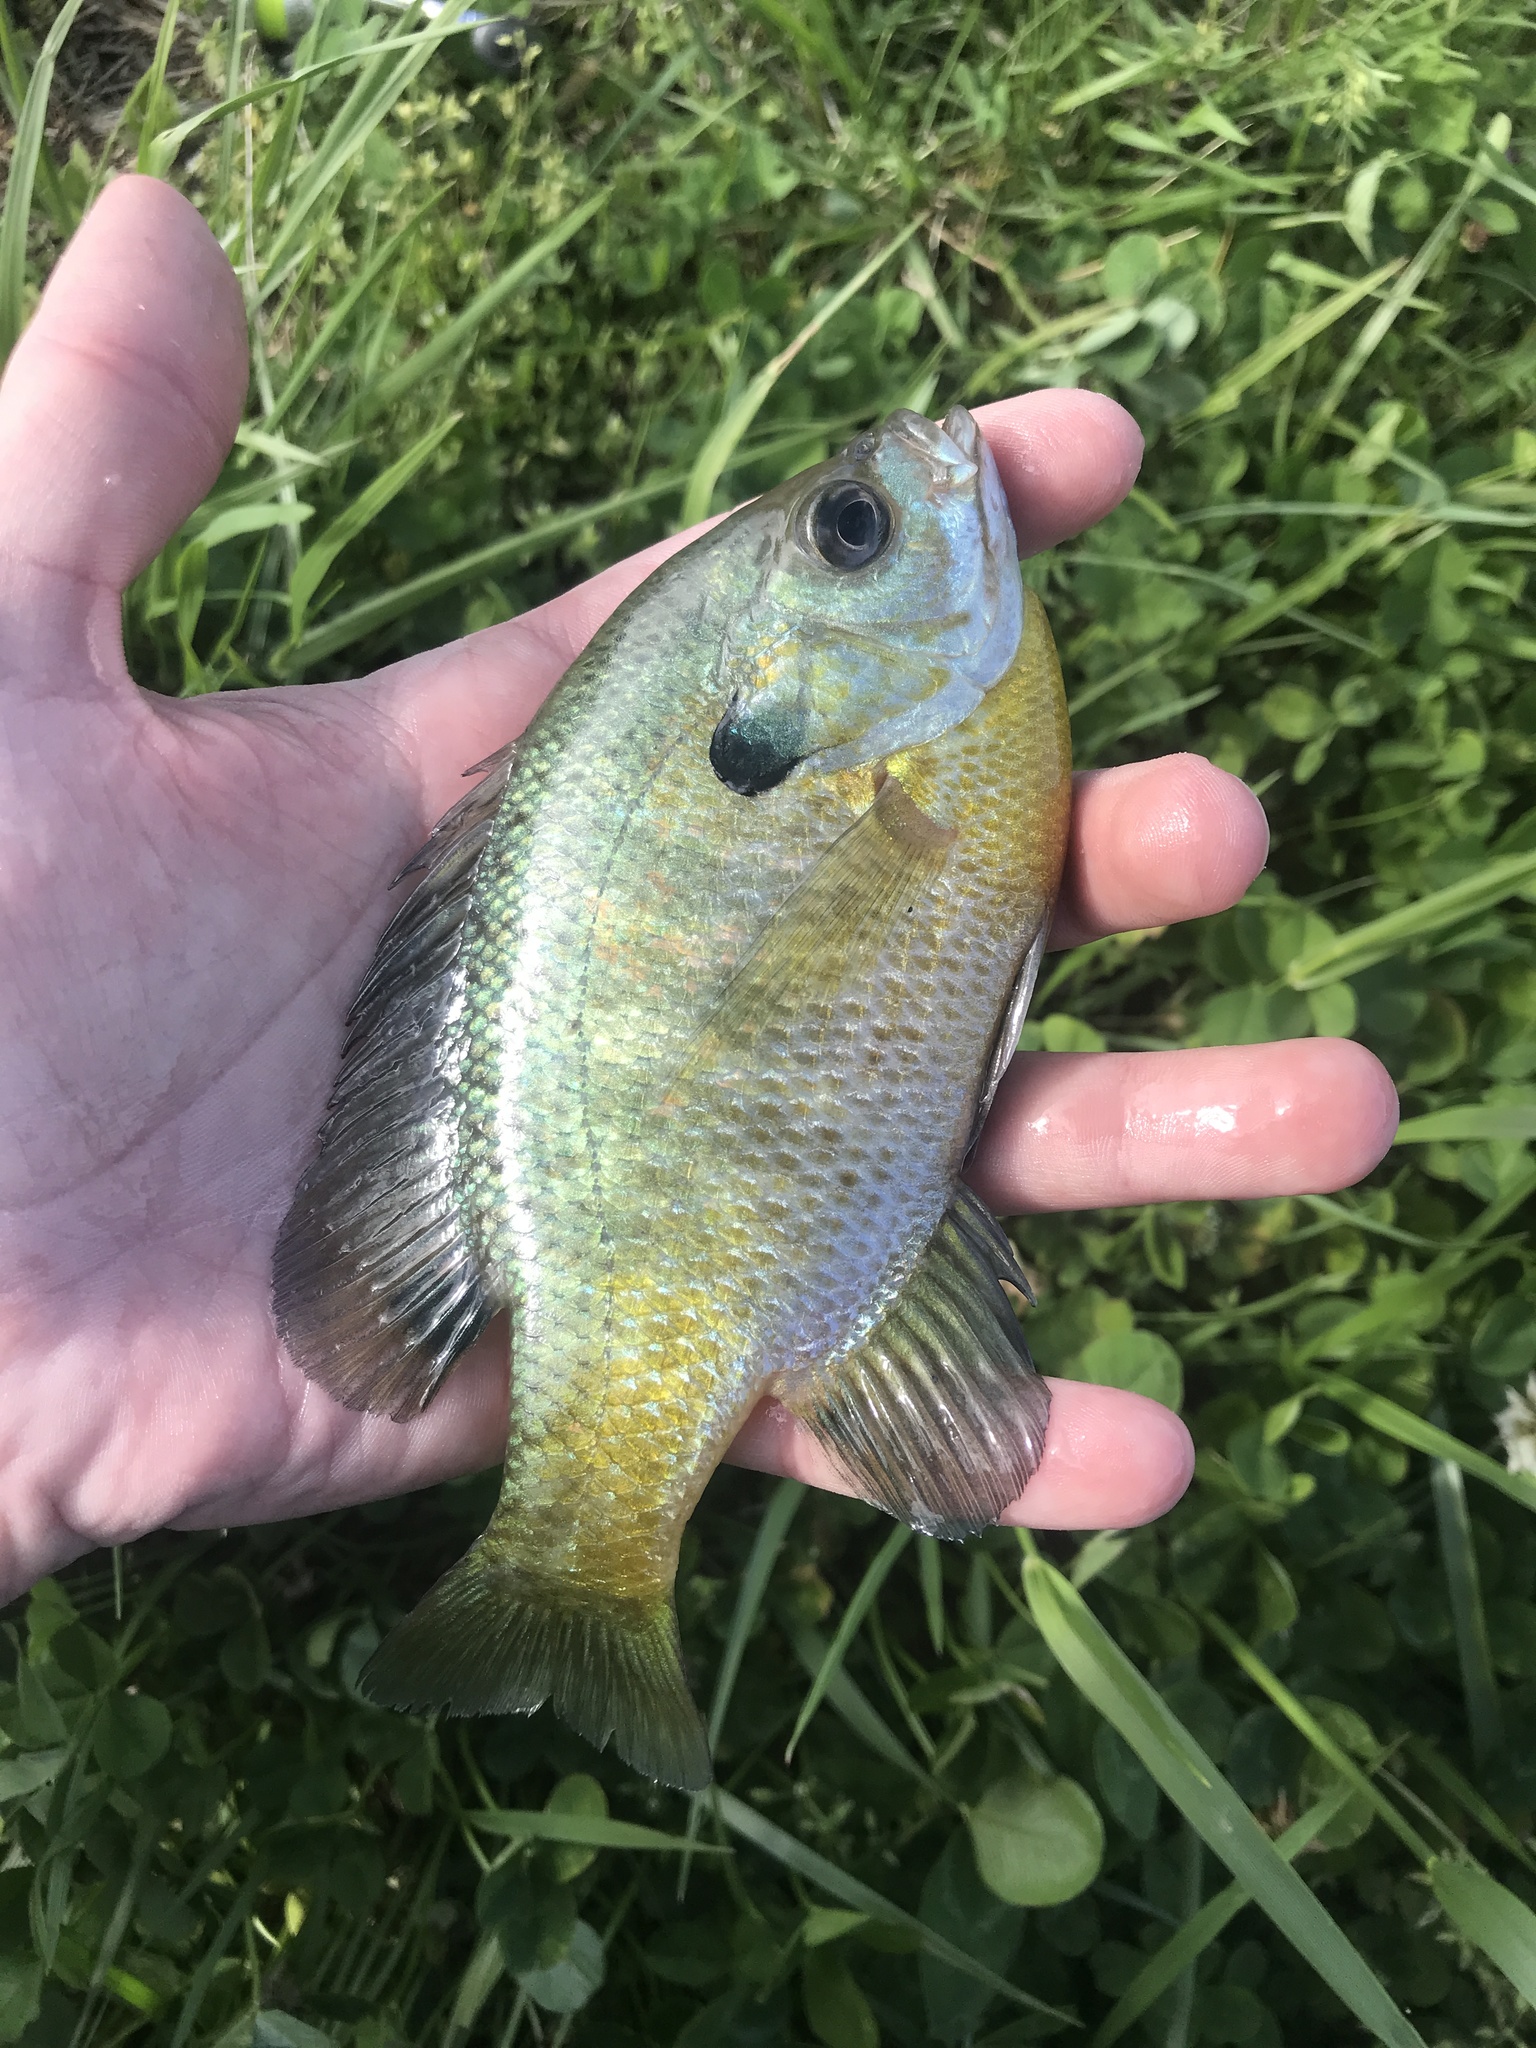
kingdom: Animalia
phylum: Chordata
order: Perciformes
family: Centrarchidae
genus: Lepomis
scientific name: Lepomis macrochirus
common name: Bluegill
